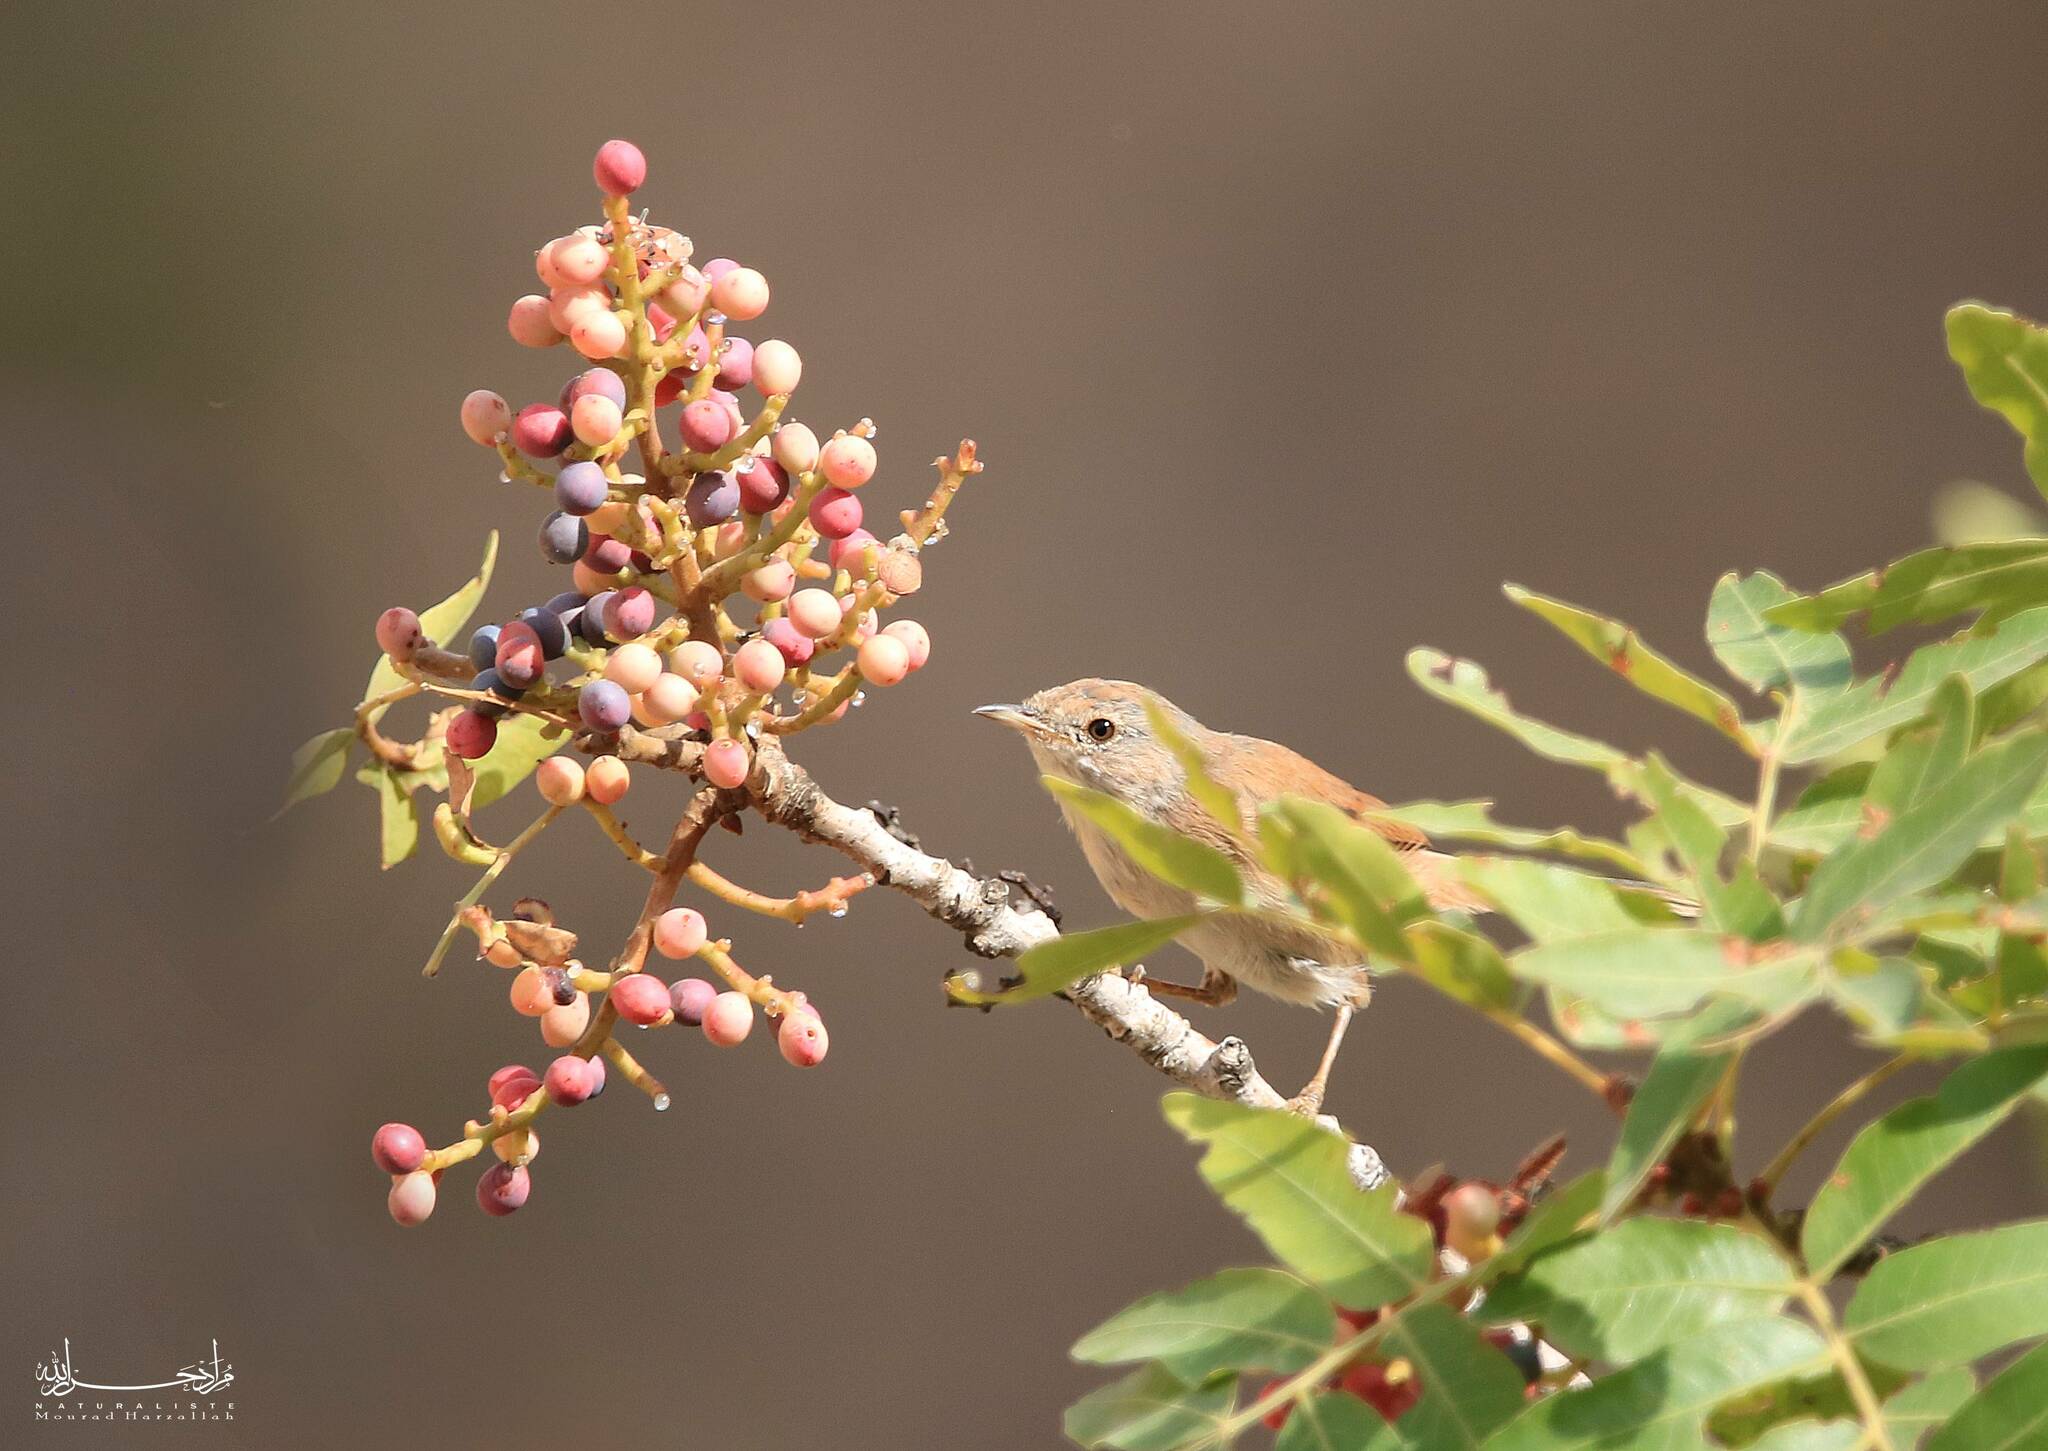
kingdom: Animalia
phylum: Chordata
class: Aves
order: Passeriformes
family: Sylviidae
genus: Sylvia
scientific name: Sylvia communis
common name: Common whitethroat
